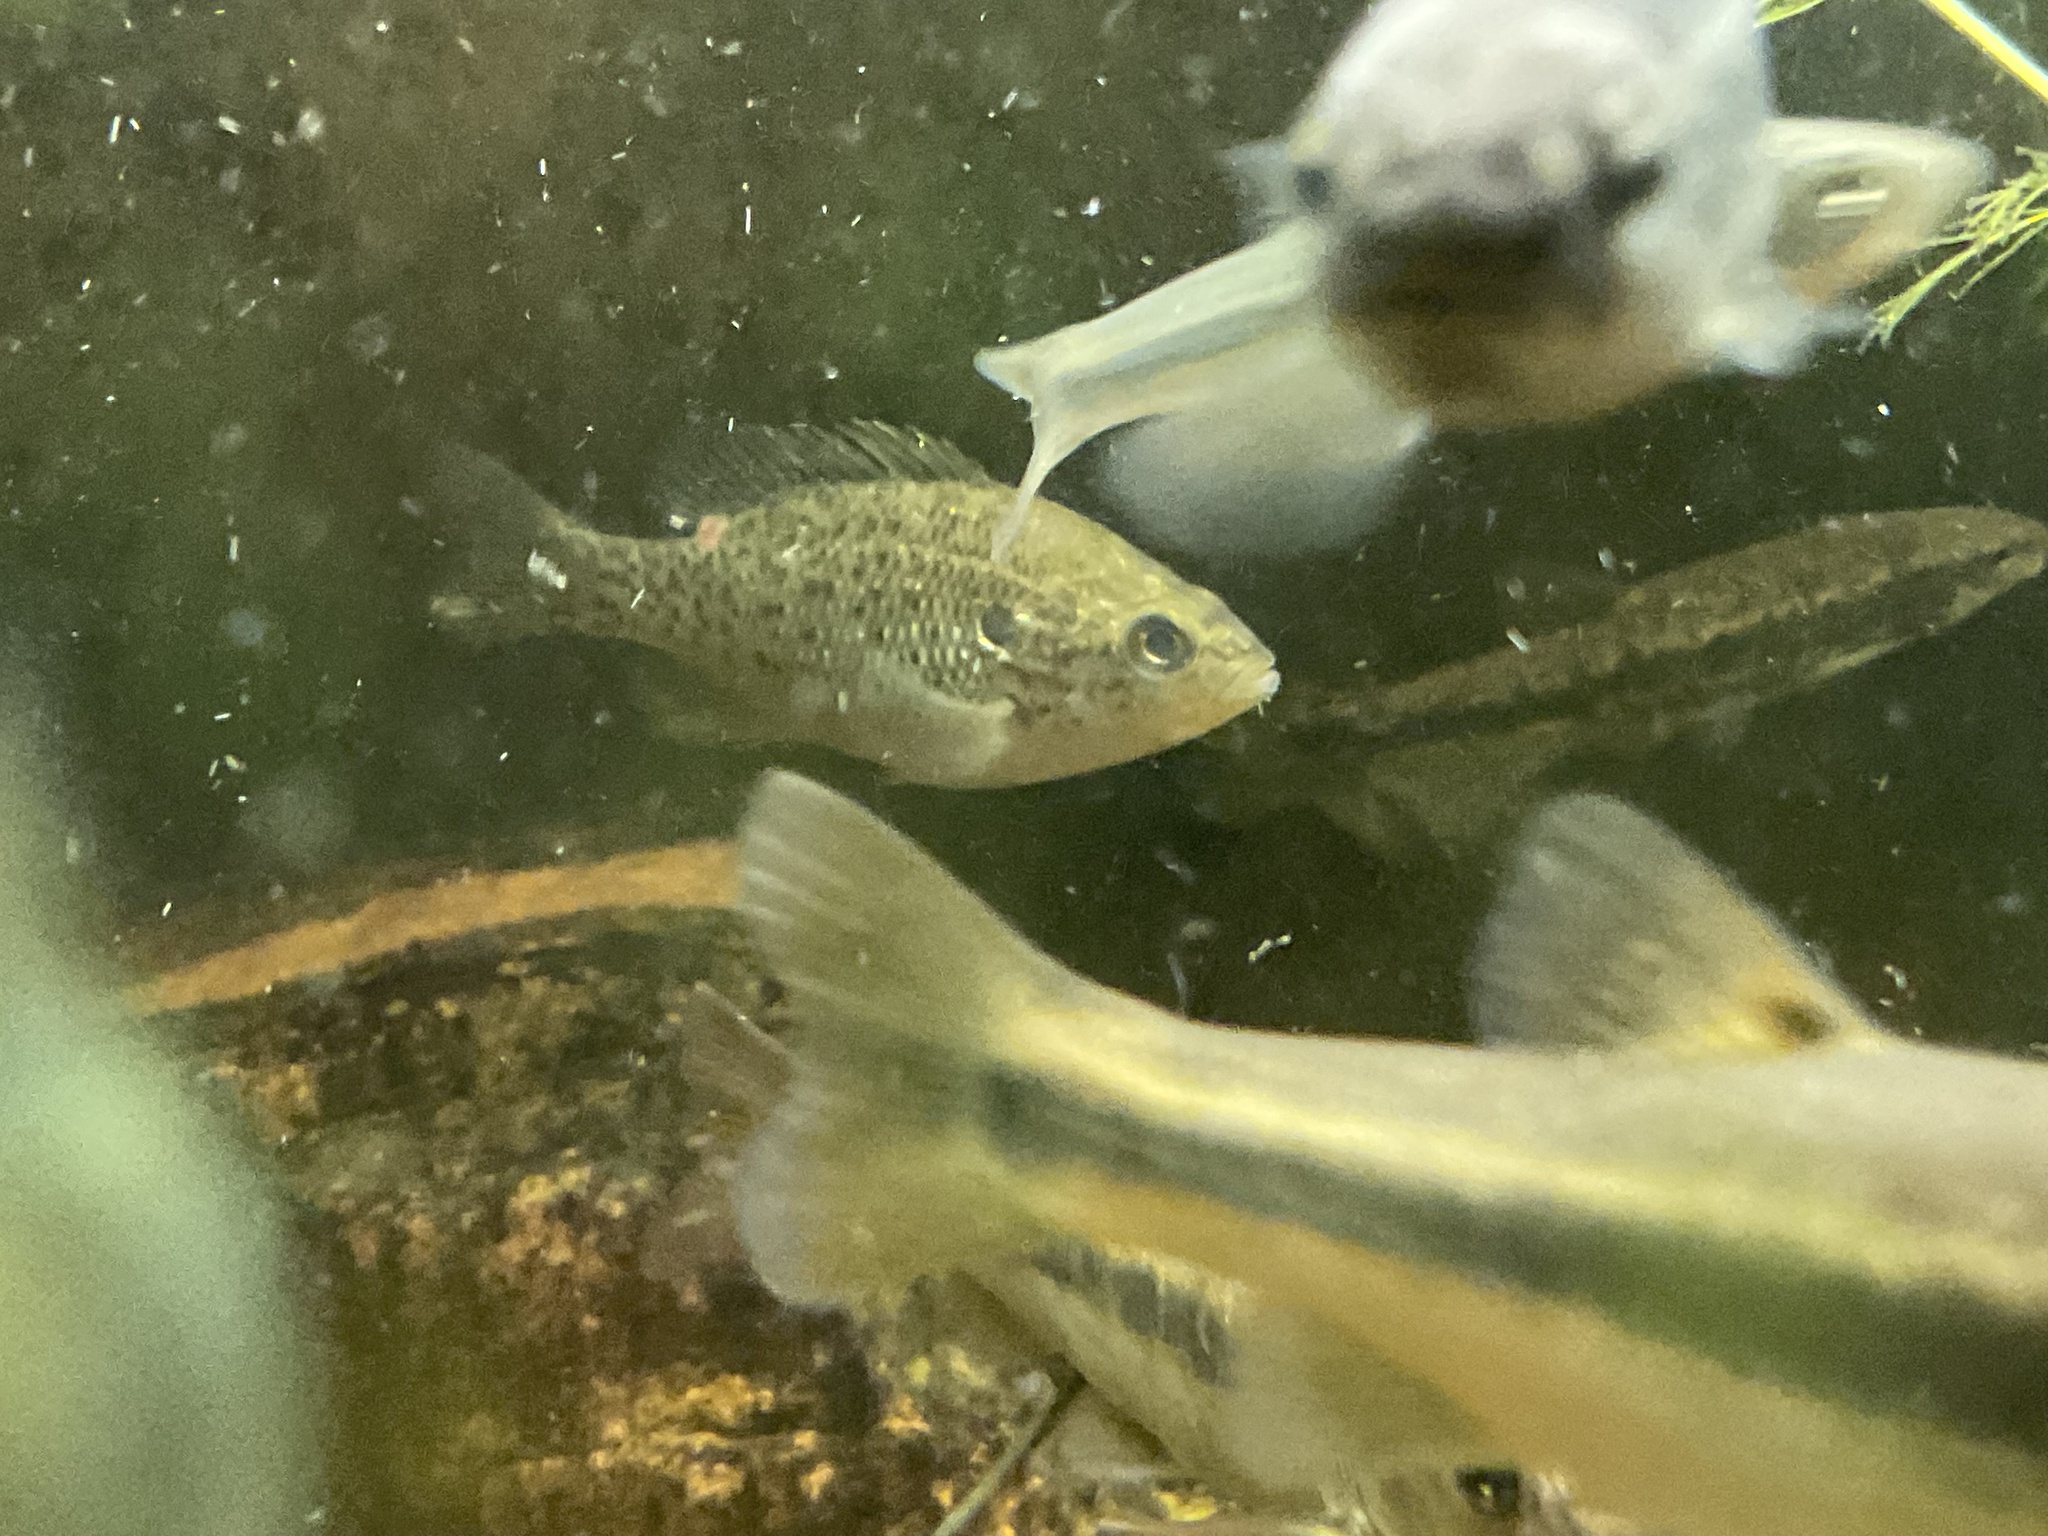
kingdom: Animalia
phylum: Chordata
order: Perciformes
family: Centrarchidae
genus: Lepomis
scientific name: Lepomis humilis
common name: Orangespotted sunfish
